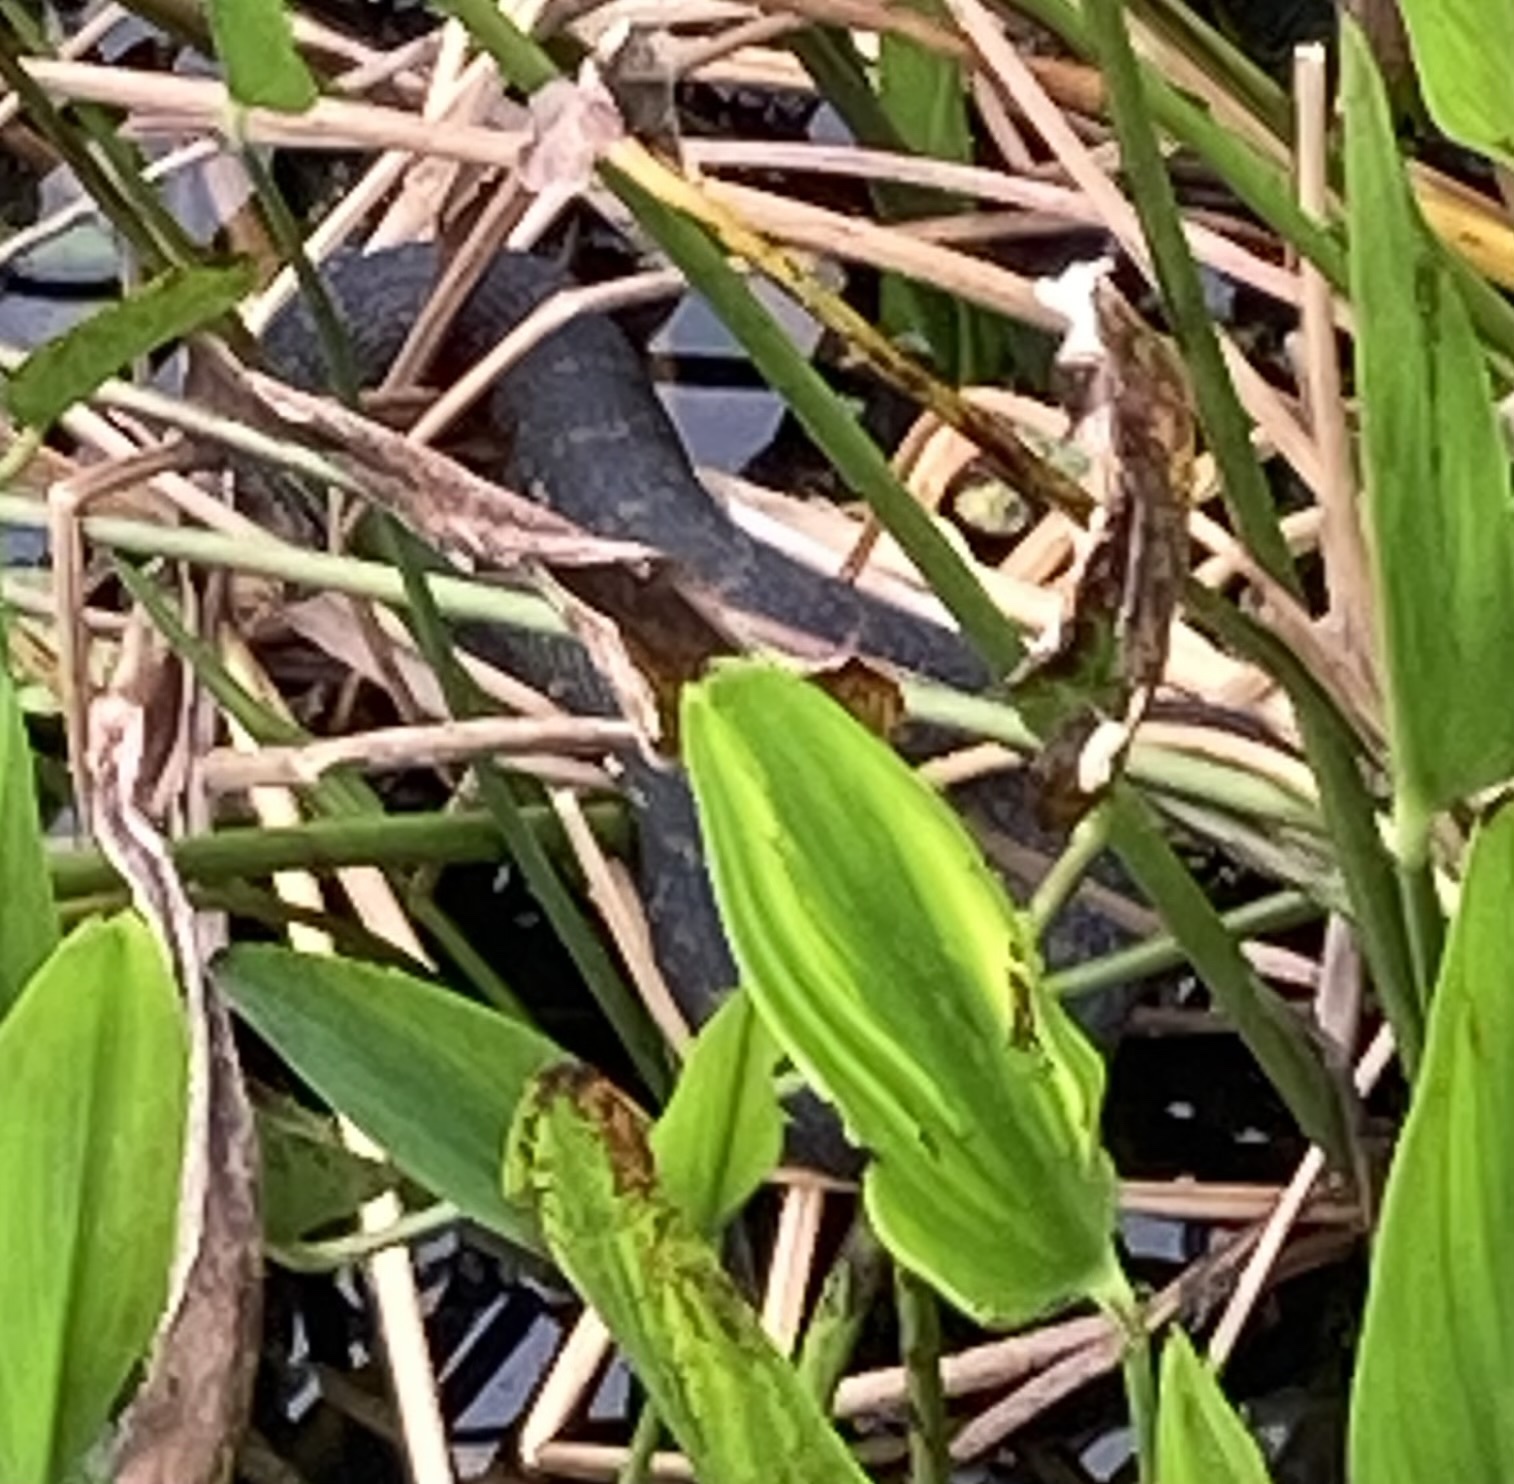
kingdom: Animalia
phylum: Chordata
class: Squamata
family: Colubridae
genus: Nerodia
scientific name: Nerodia fasciata
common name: Southern water snake
